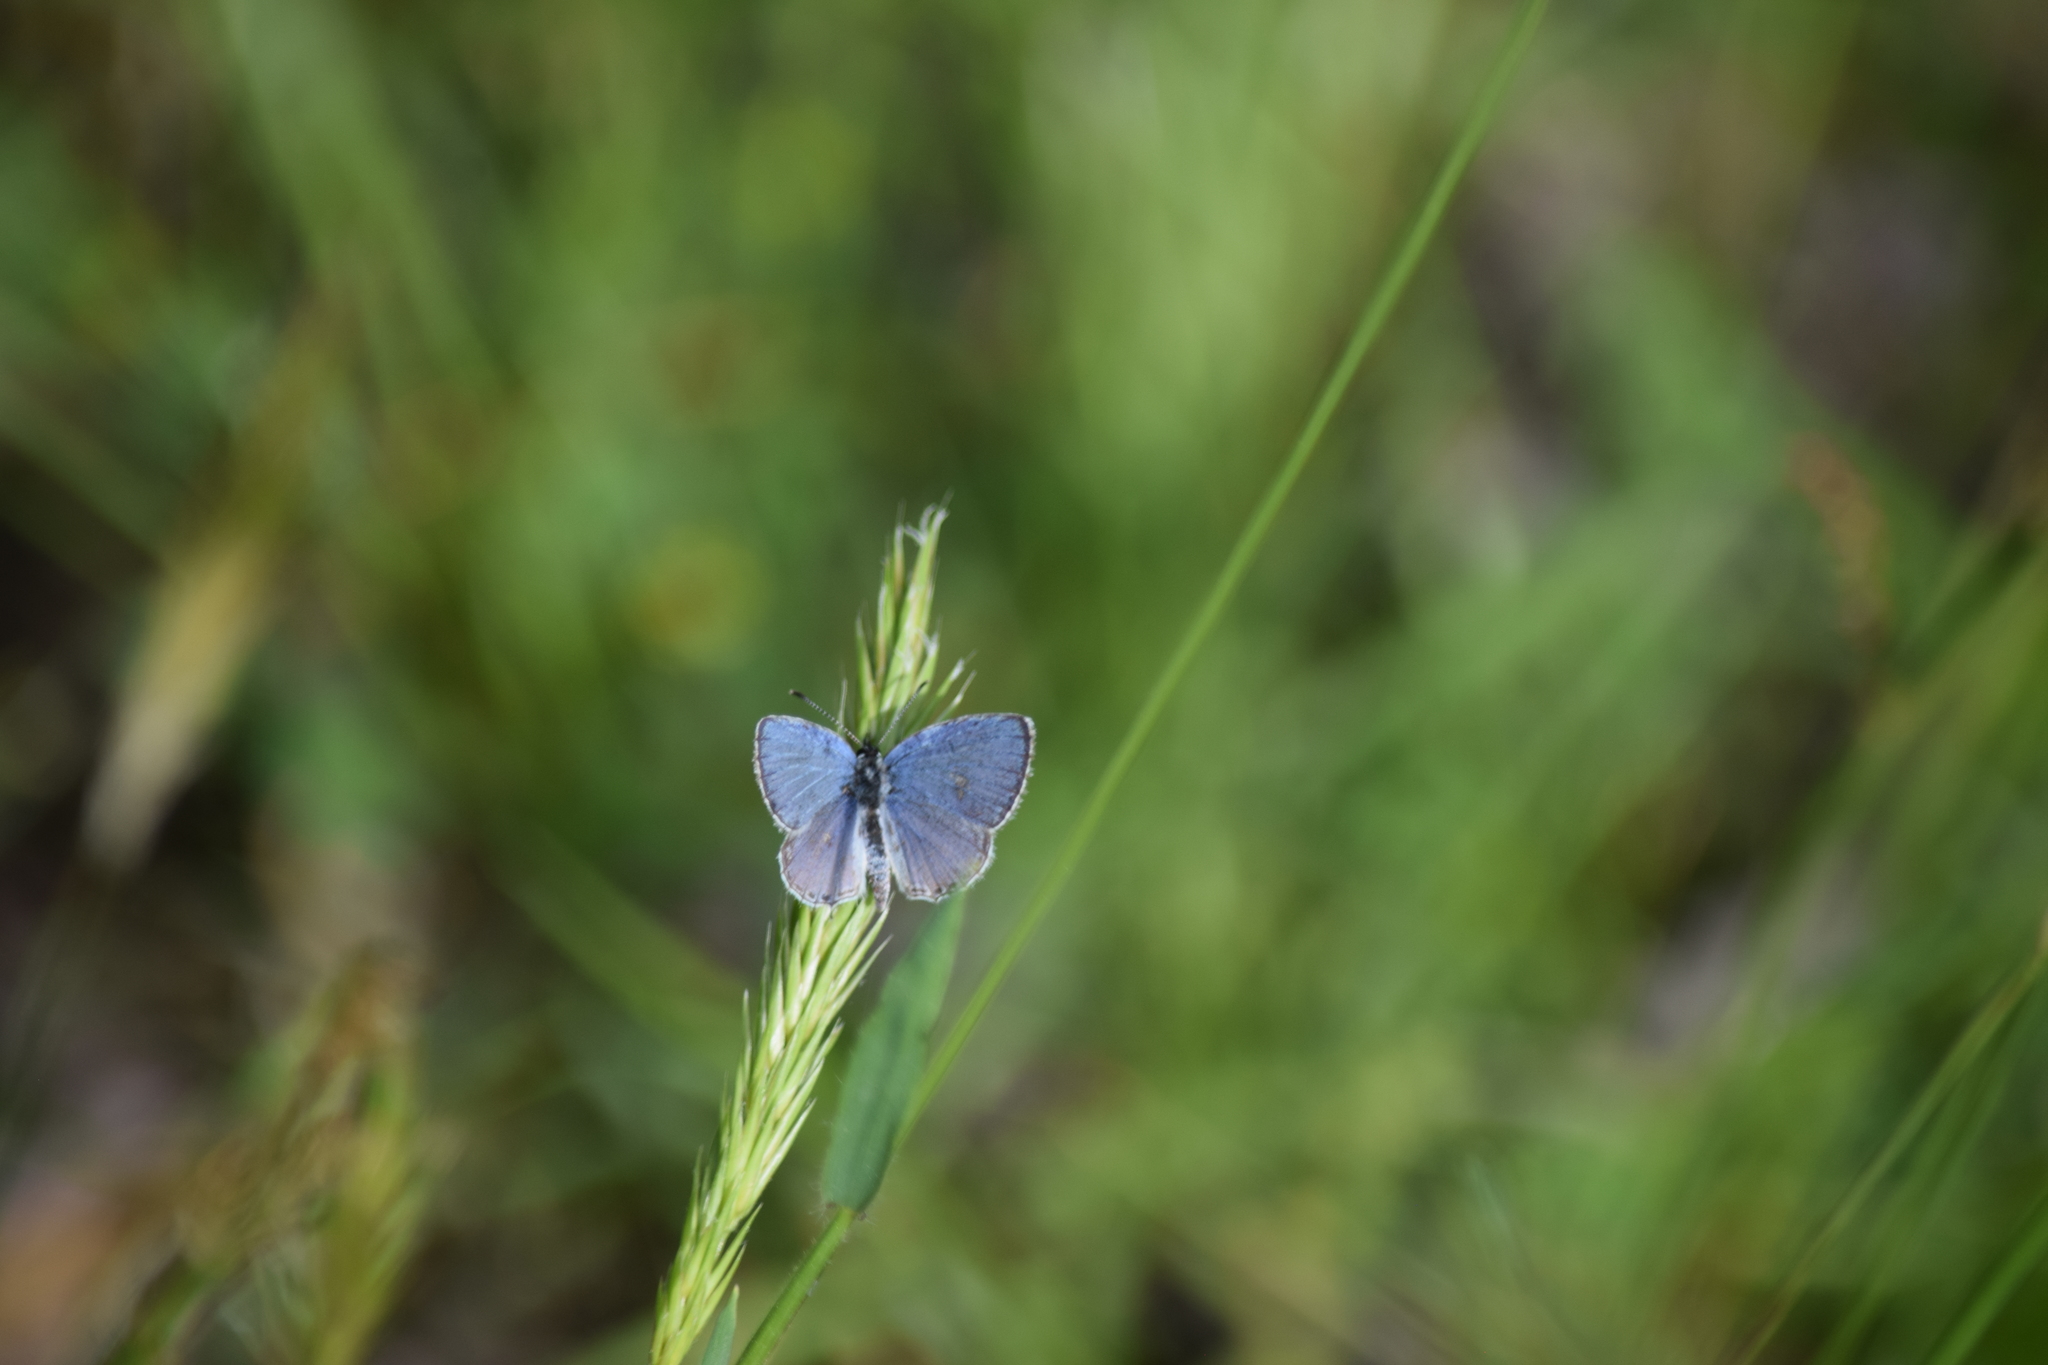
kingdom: Animalia
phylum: Arthropoda
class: Insecta
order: Lepidoptera
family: Lycaenidae
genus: Elkalyce
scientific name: Elkalyce comyntas
